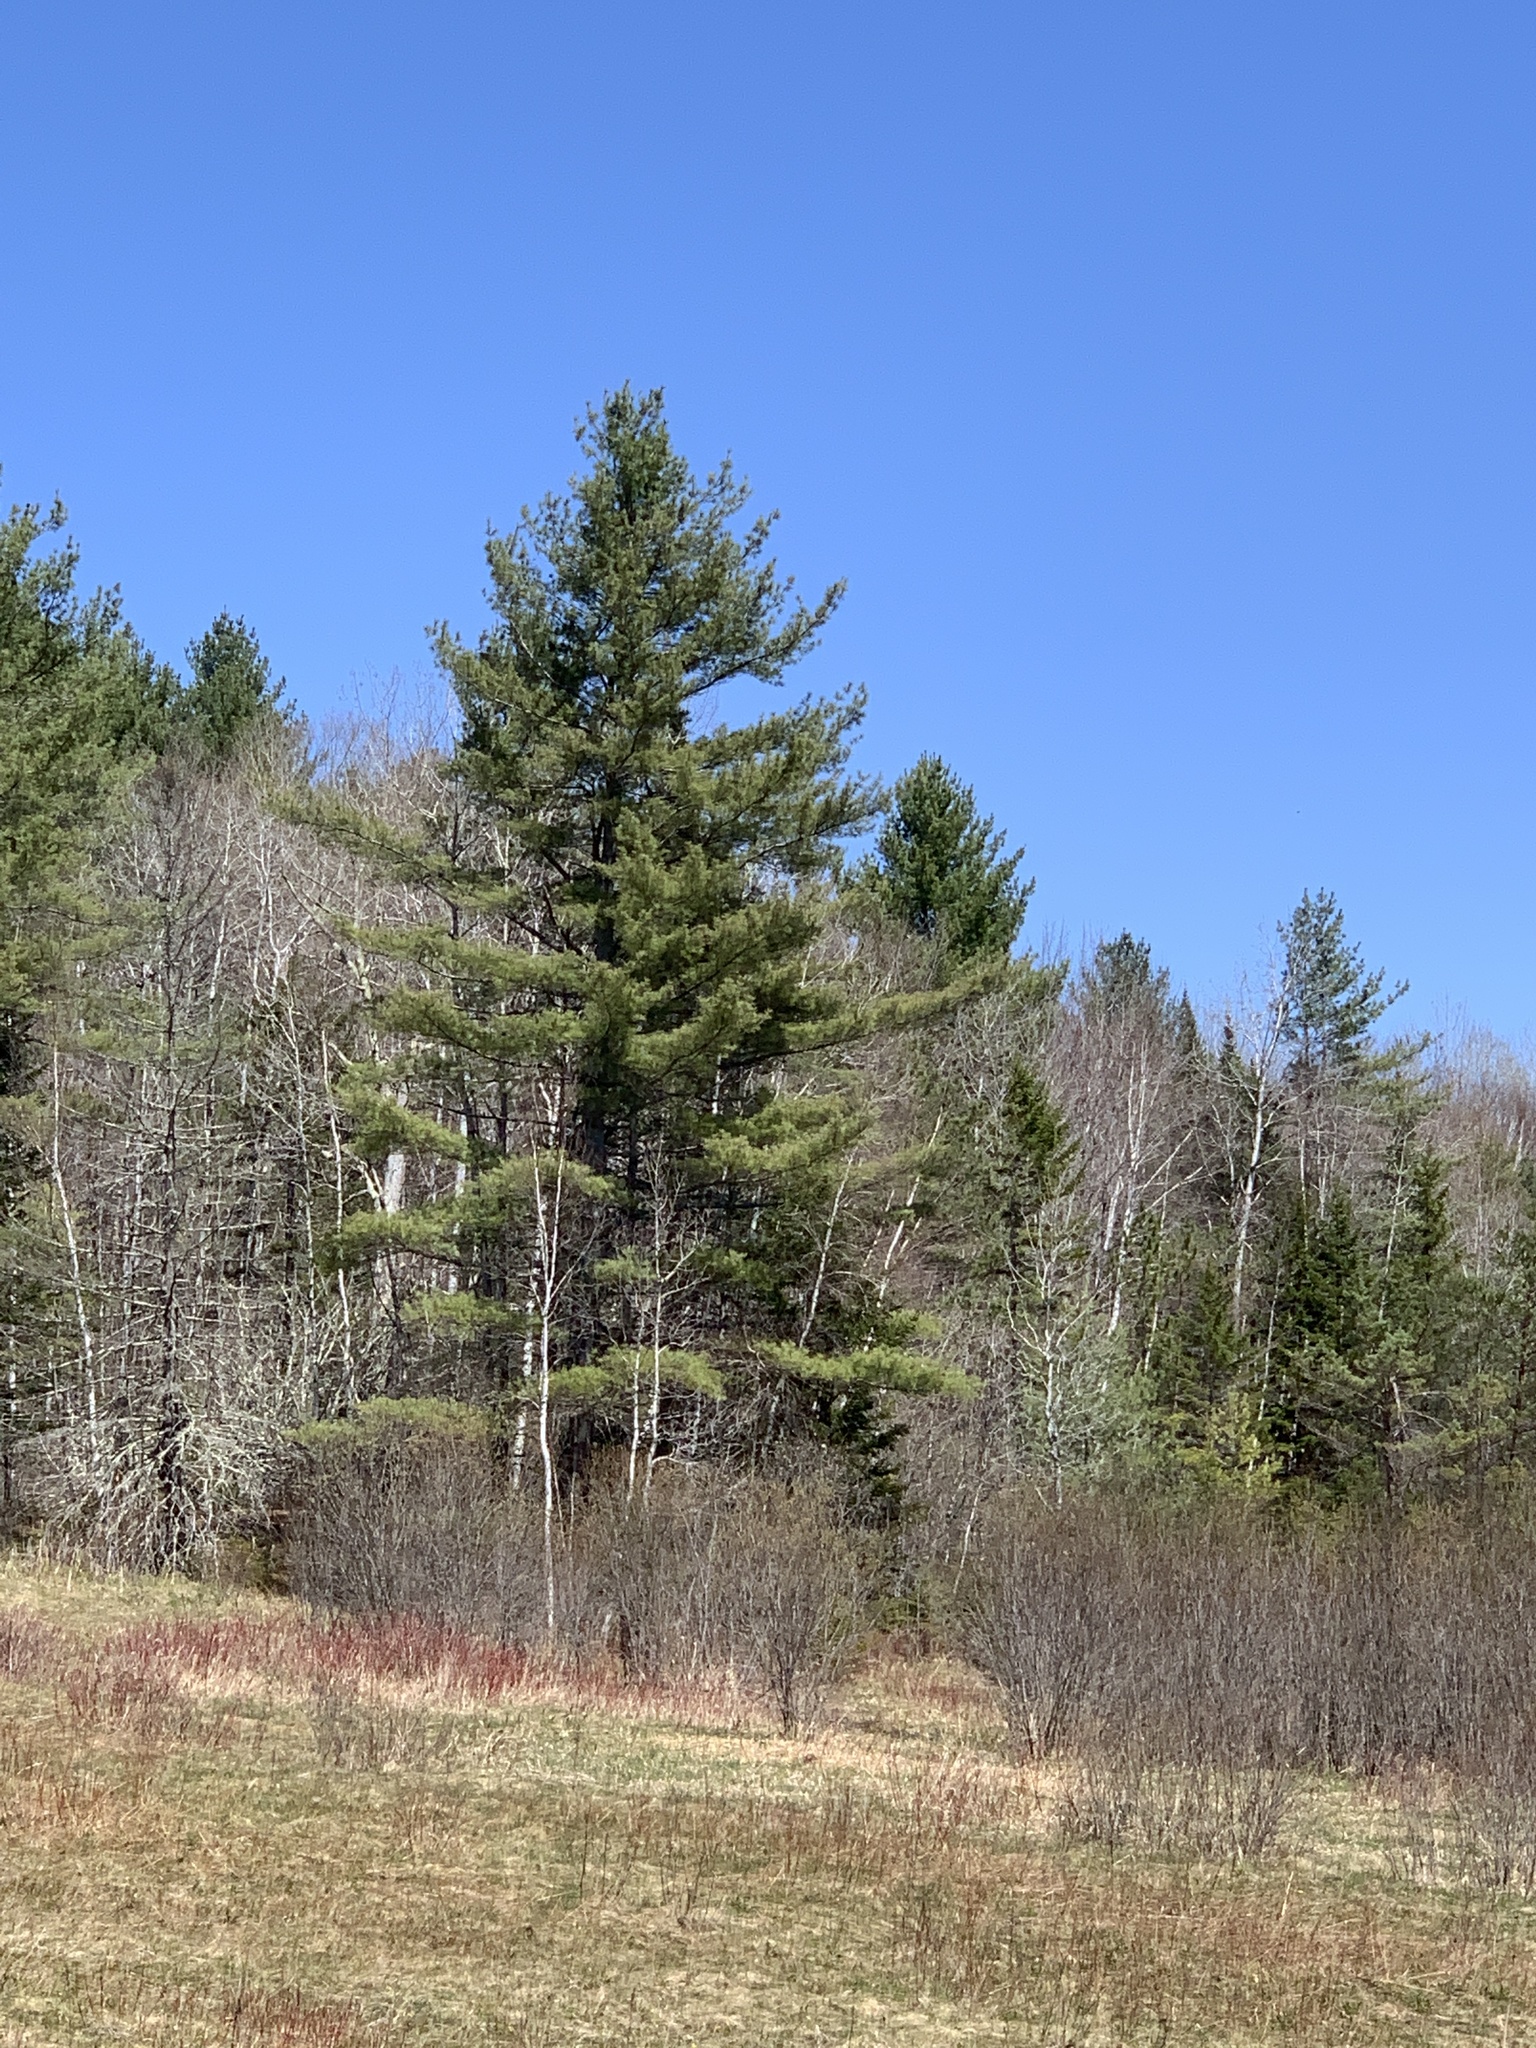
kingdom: Plantae
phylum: Tracheophyta
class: Pinopsida
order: Pinales
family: Pinaceae
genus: Pinus
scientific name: Pinus strobus
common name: Weymouth pine
